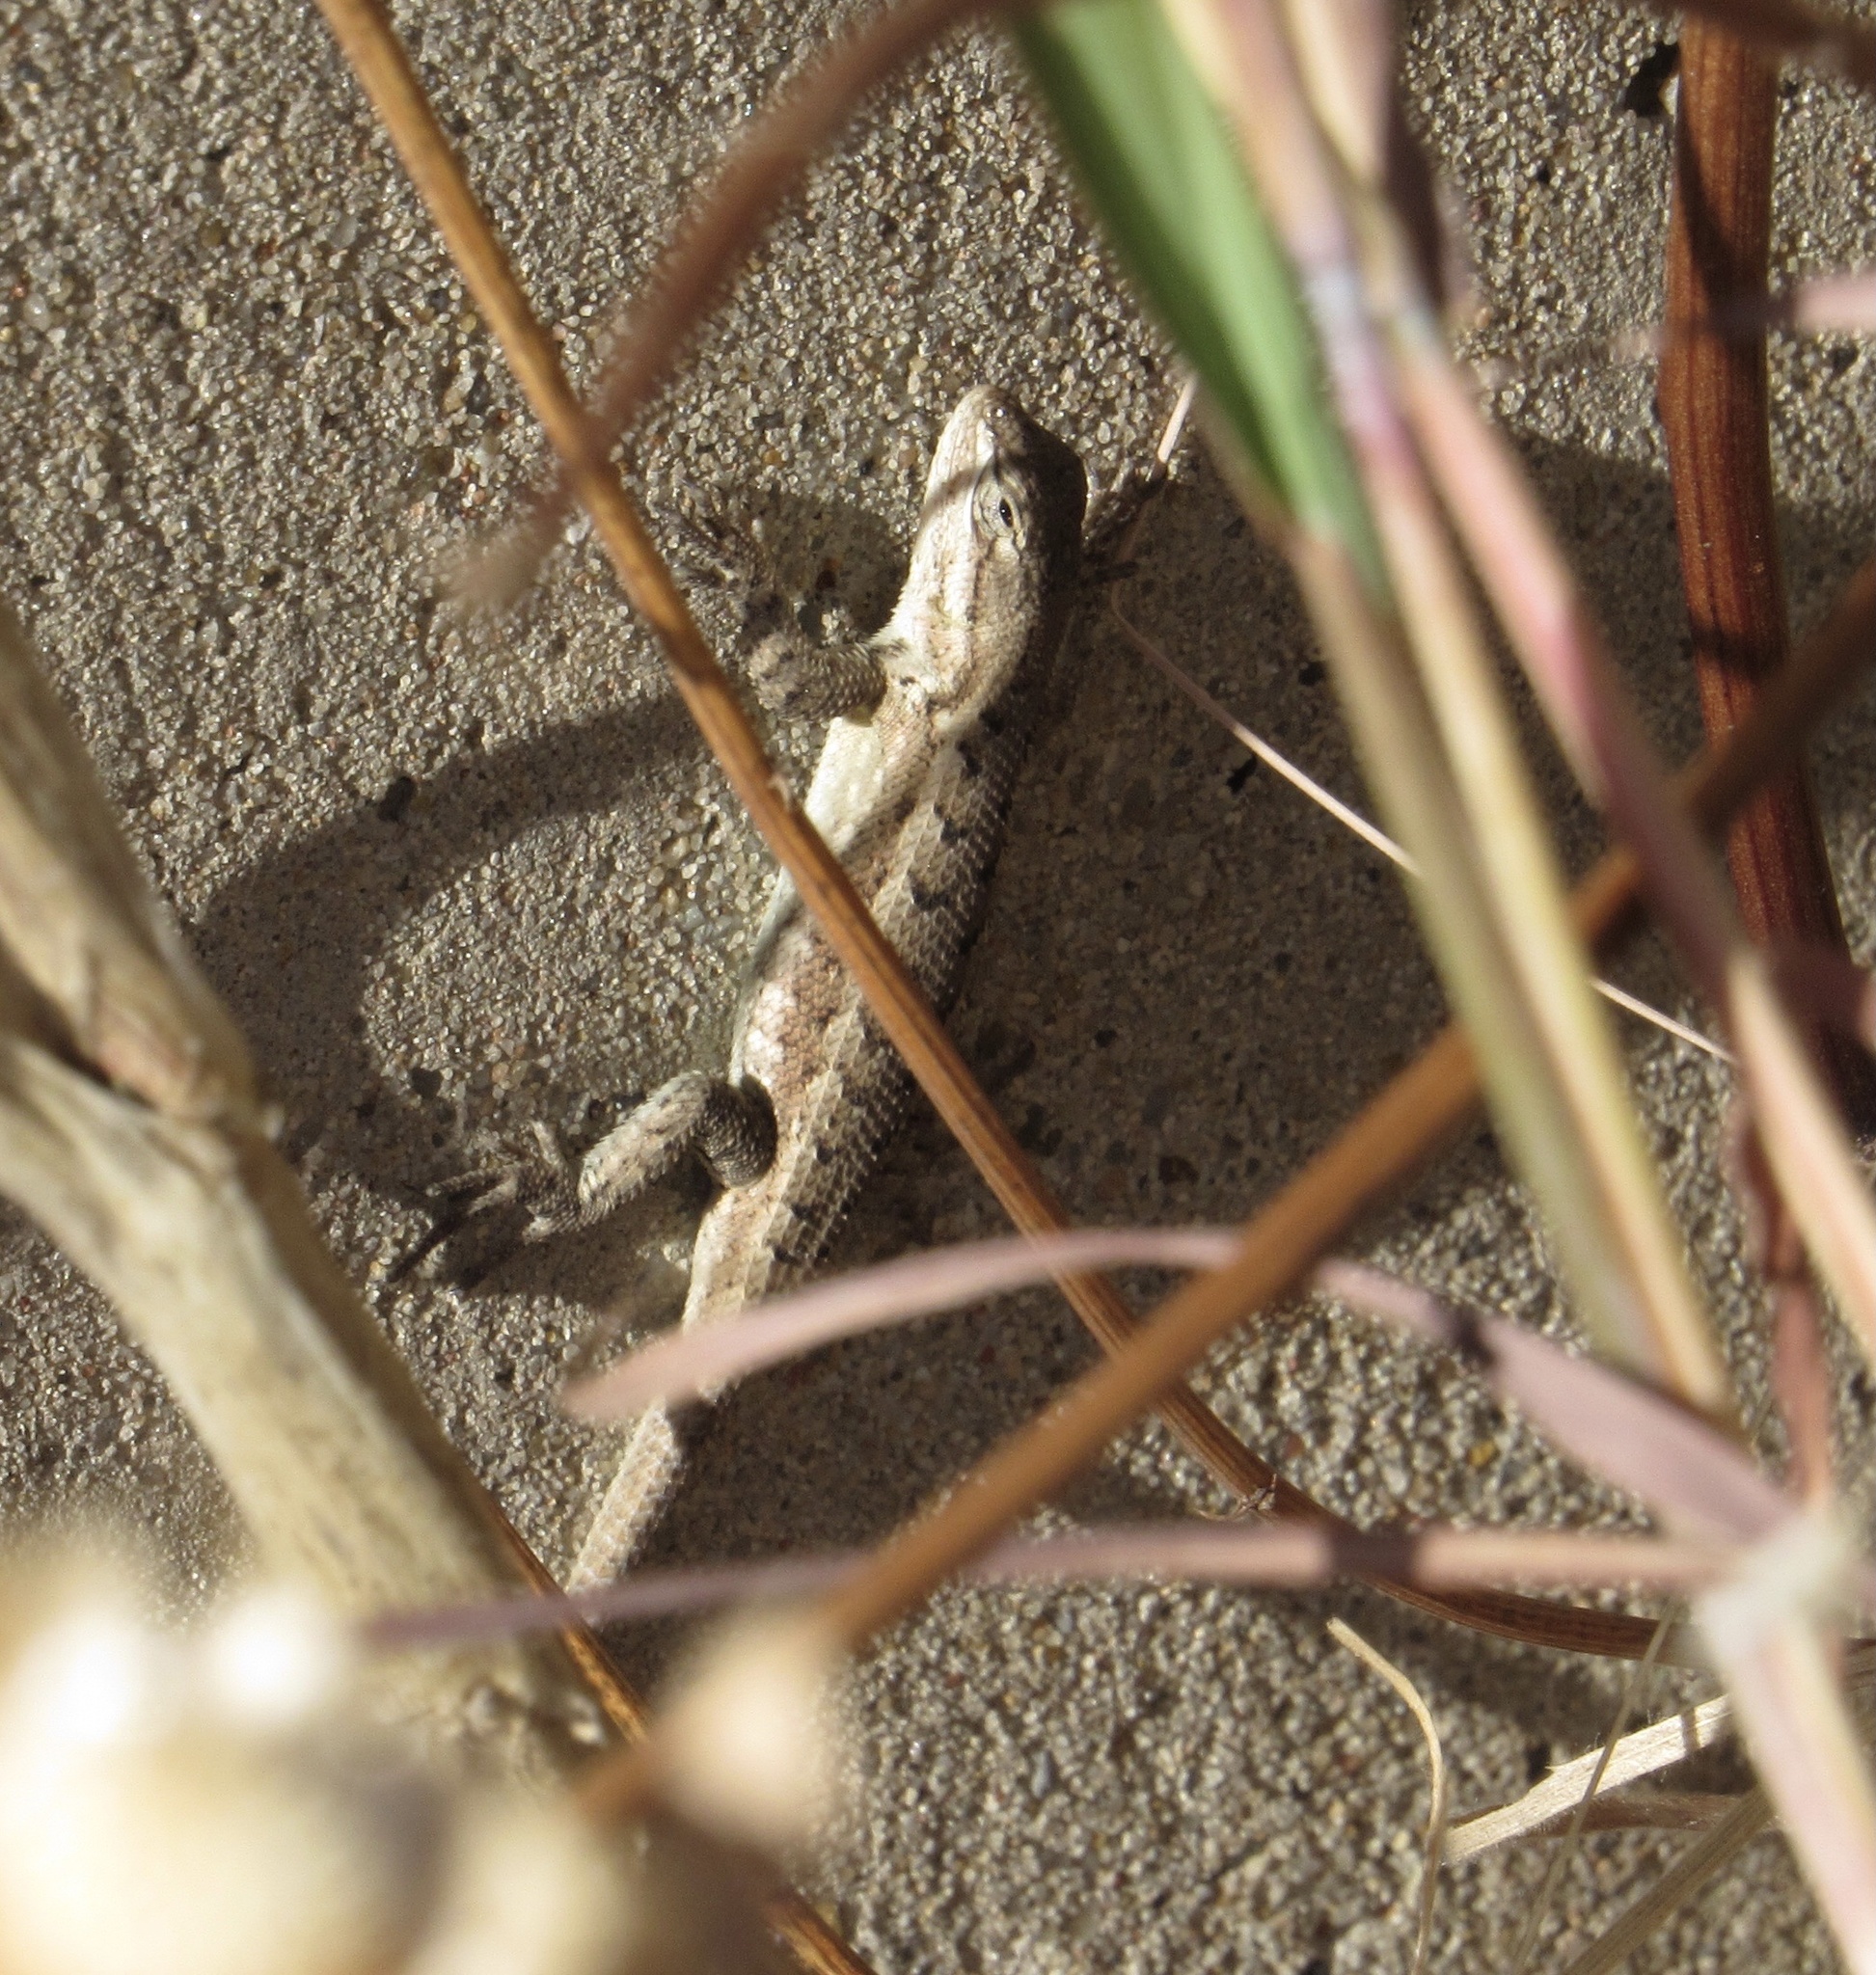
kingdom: Animalia
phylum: Chordata
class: Squamata
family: Phrynosomatidae
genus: Sceloporus
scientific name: Sceloporus consobrinus
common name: Southern prairie lizard
